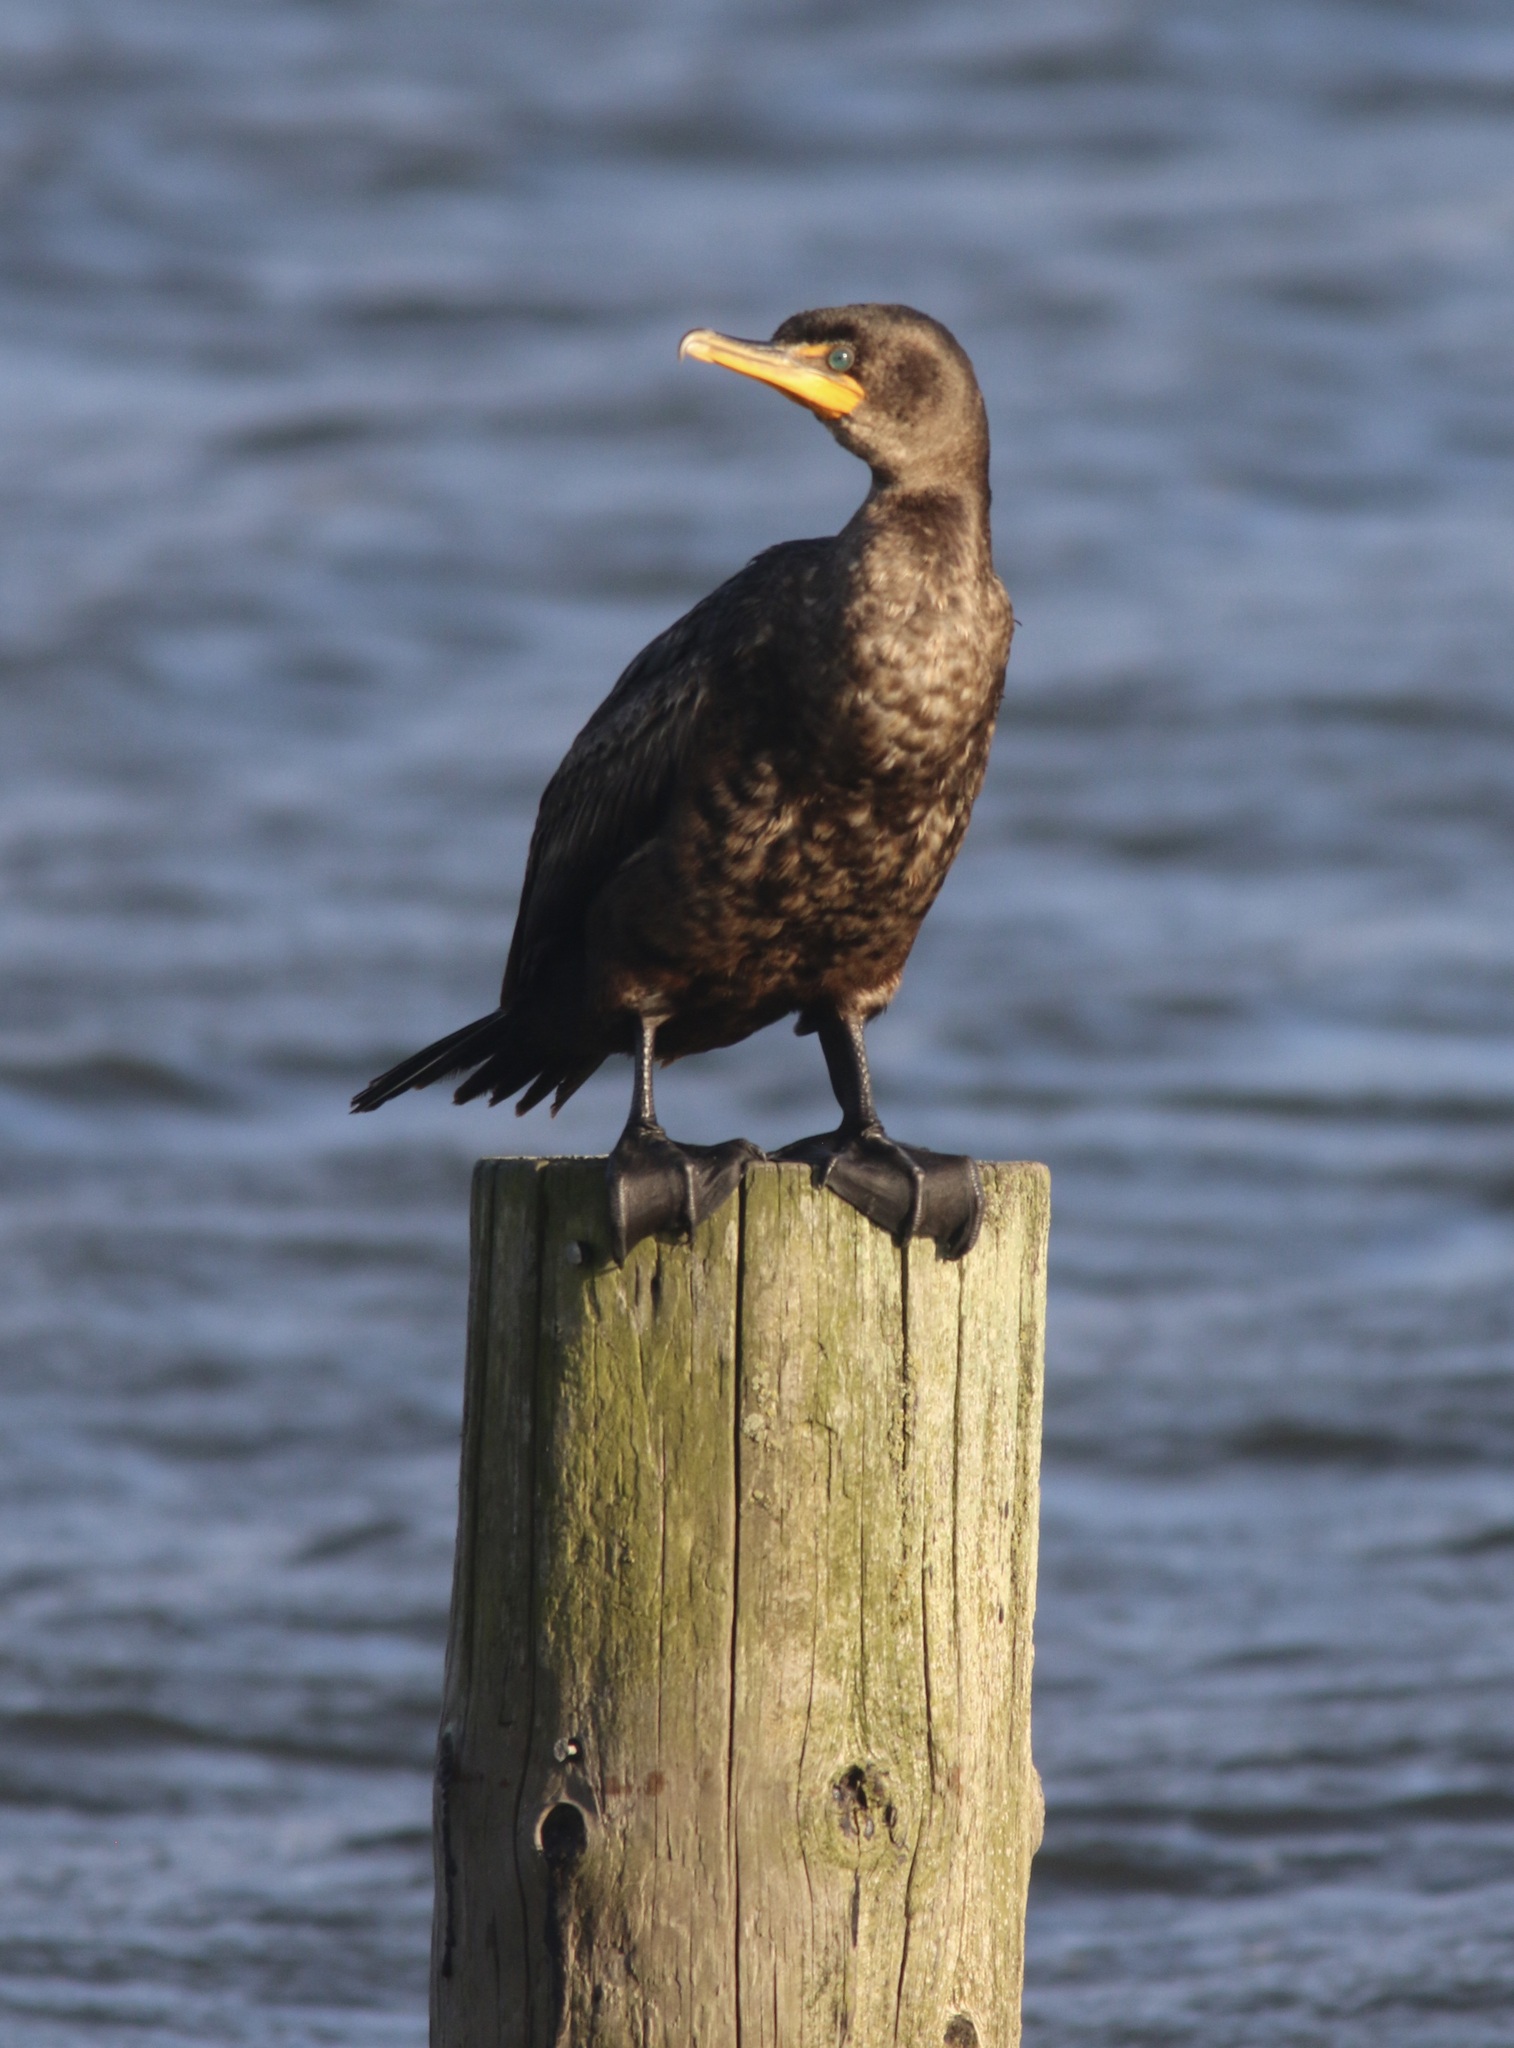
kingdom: Animalia
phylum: Chordata
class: Aves
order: Suliformes
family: Phalacrocoracidae
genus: Phalacrocorax
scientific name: Phalacrocorax auritus
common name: Double-crested cormorant
